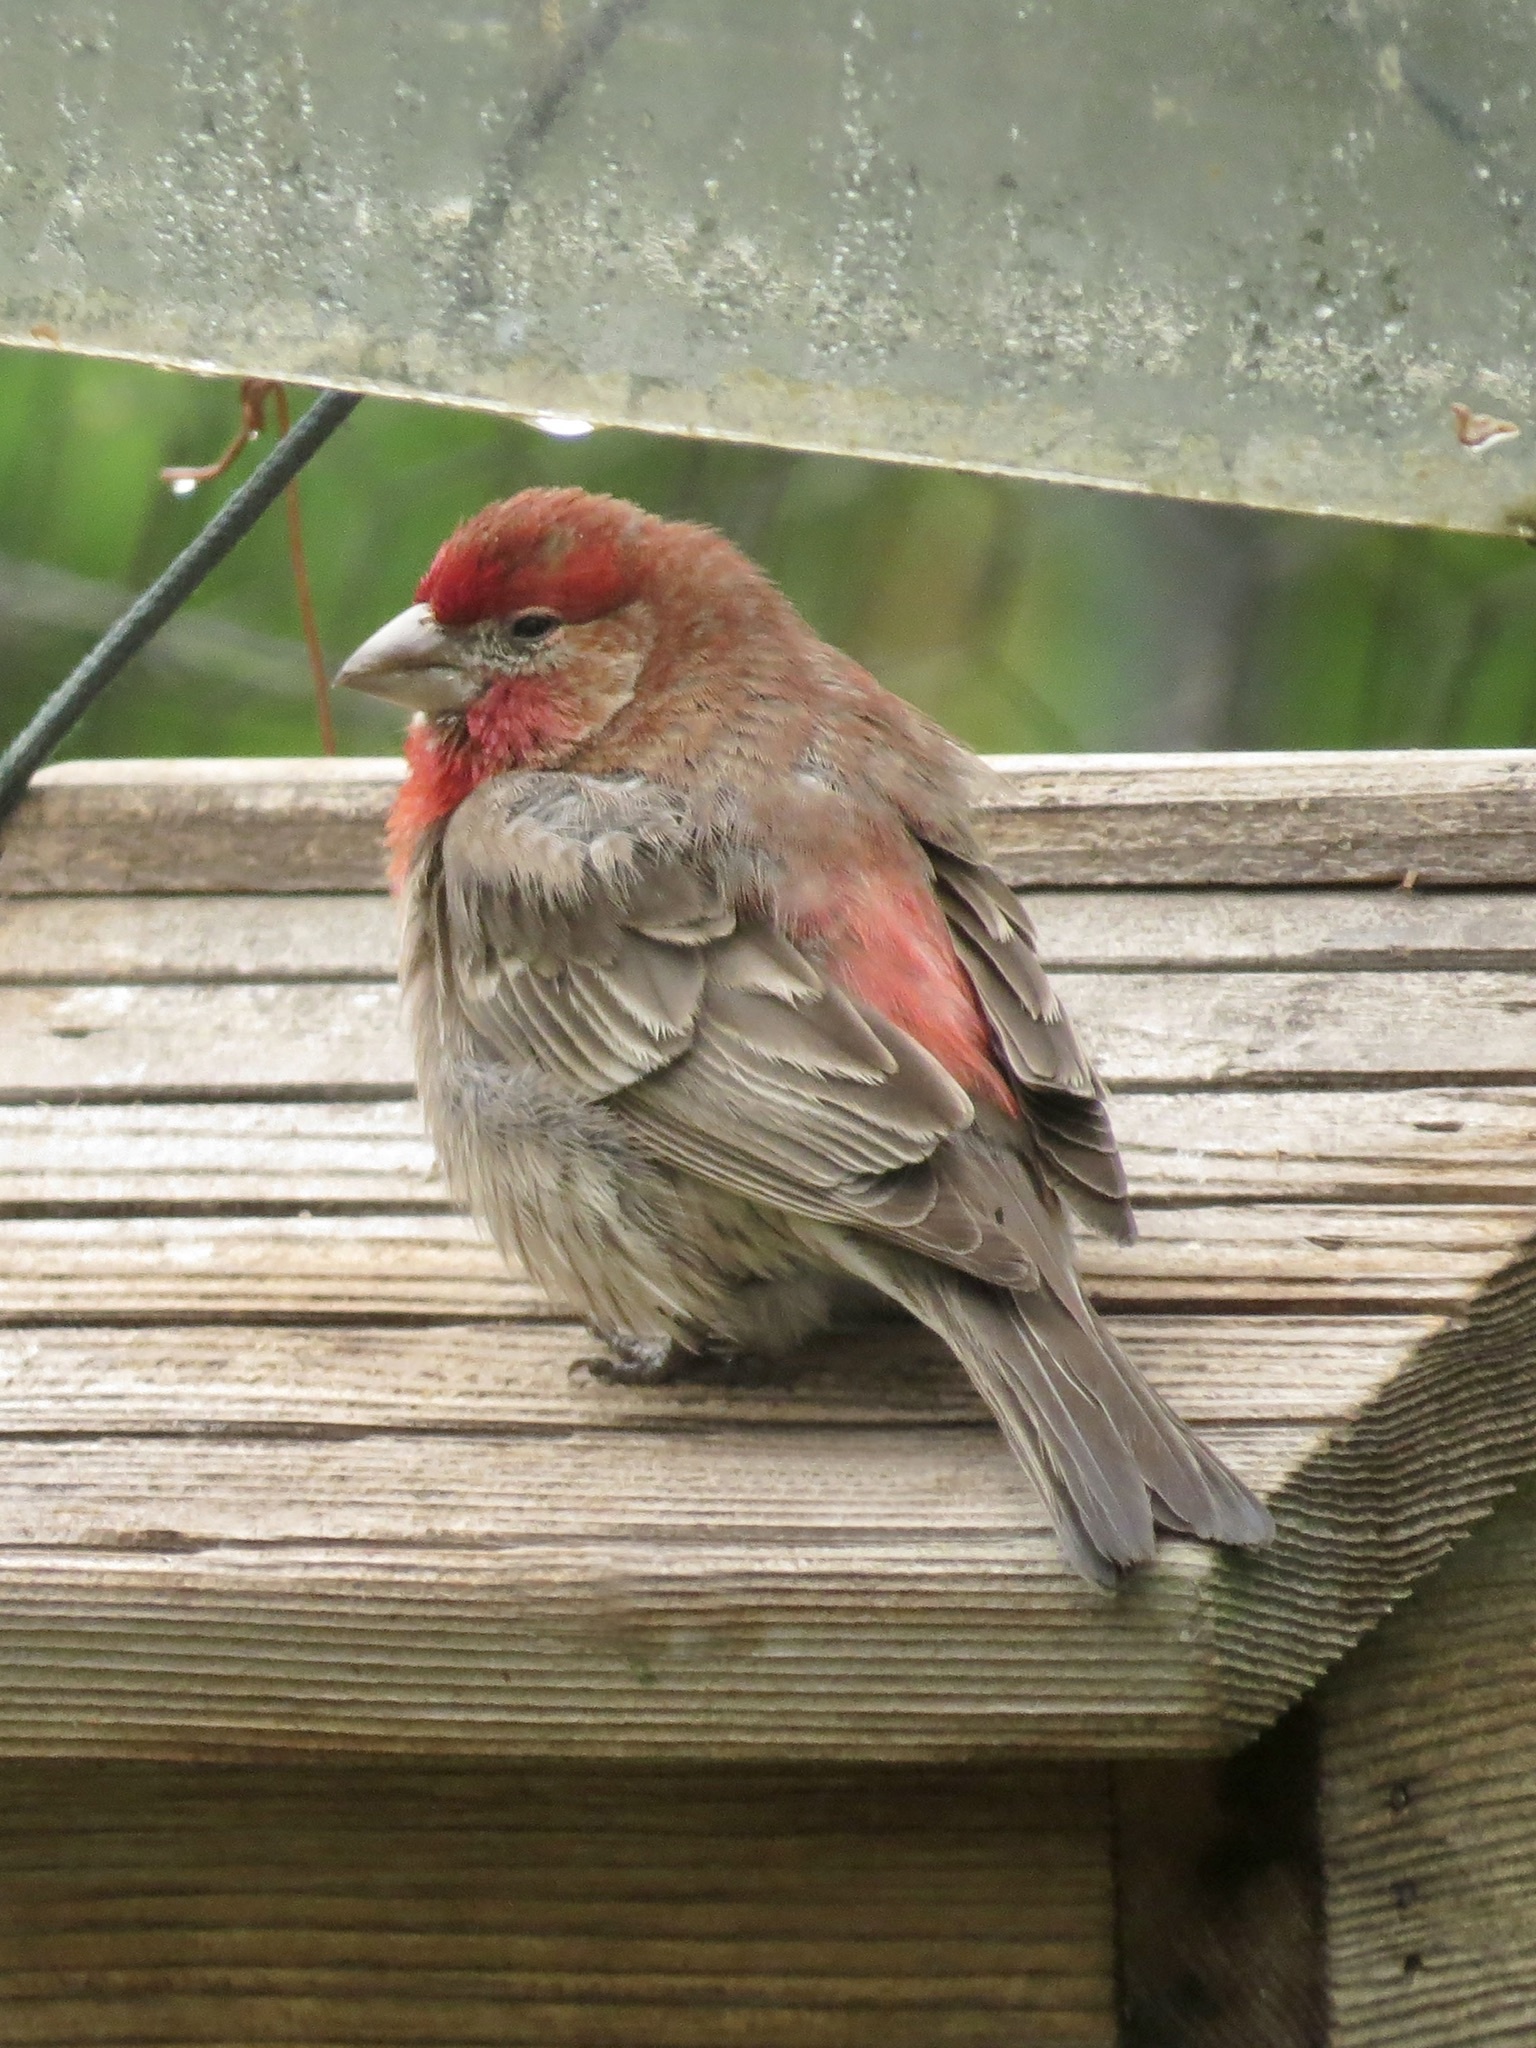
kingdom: Animalia
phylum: Chordata
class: Aves
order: Passeriformes
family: Fringillidae
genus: Haemorhous
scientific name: Haemorhous mexicanus
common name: House finch
